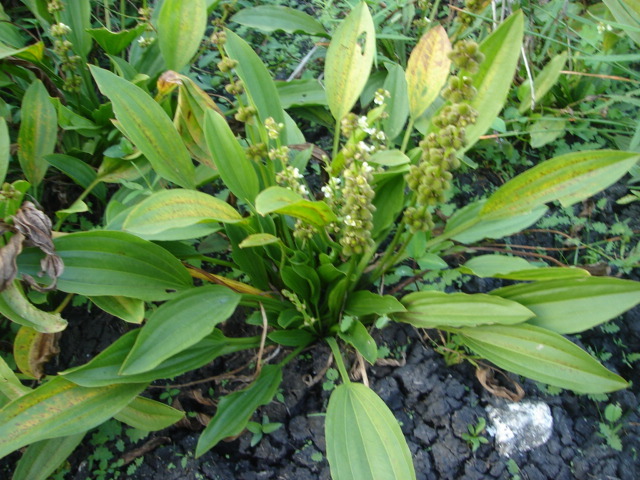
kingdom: Plantae
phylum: Tracheophyta
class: Liliopsida
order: Alismatales
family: Alismataceae
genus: Aquarius
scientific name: Aquarius subulatus
